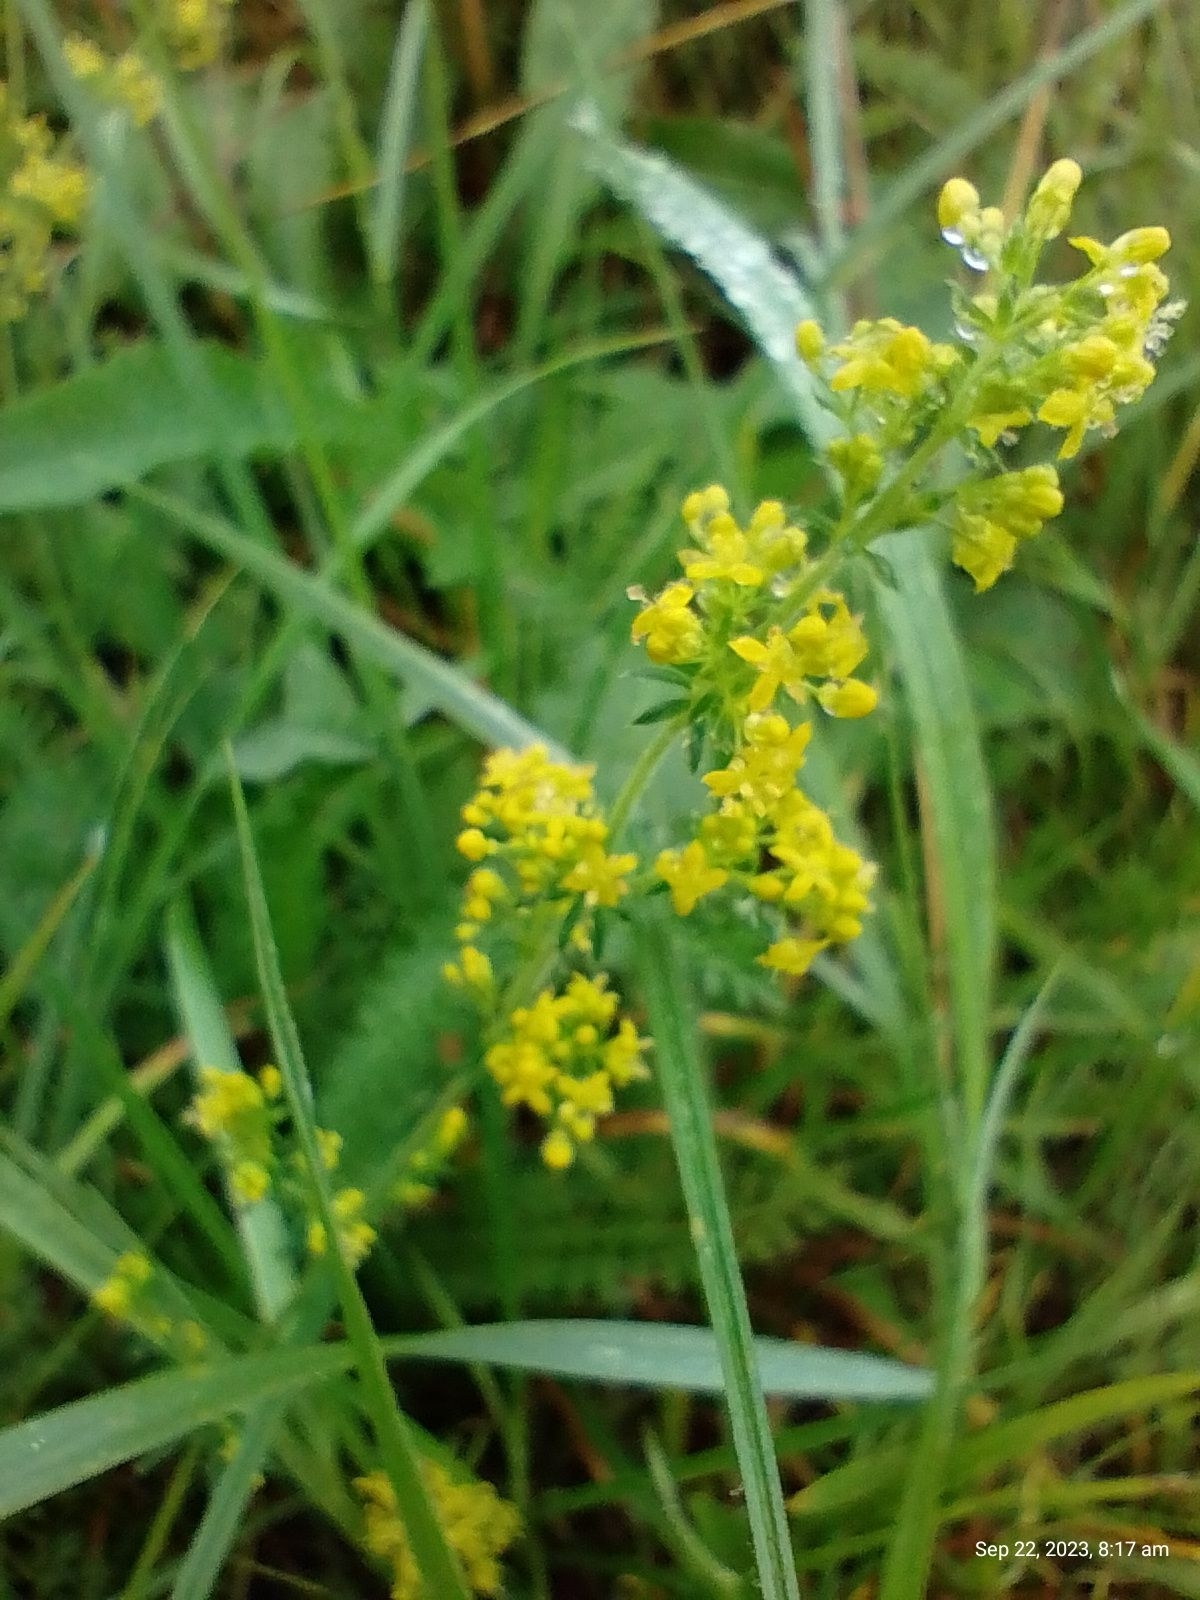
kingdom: Plantae
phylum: Tracheophyta
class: Magnoliopsida
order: Gentianales
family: Rubiaceae
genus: Galium
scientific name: Galium verum
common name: Lady's bedstraw
